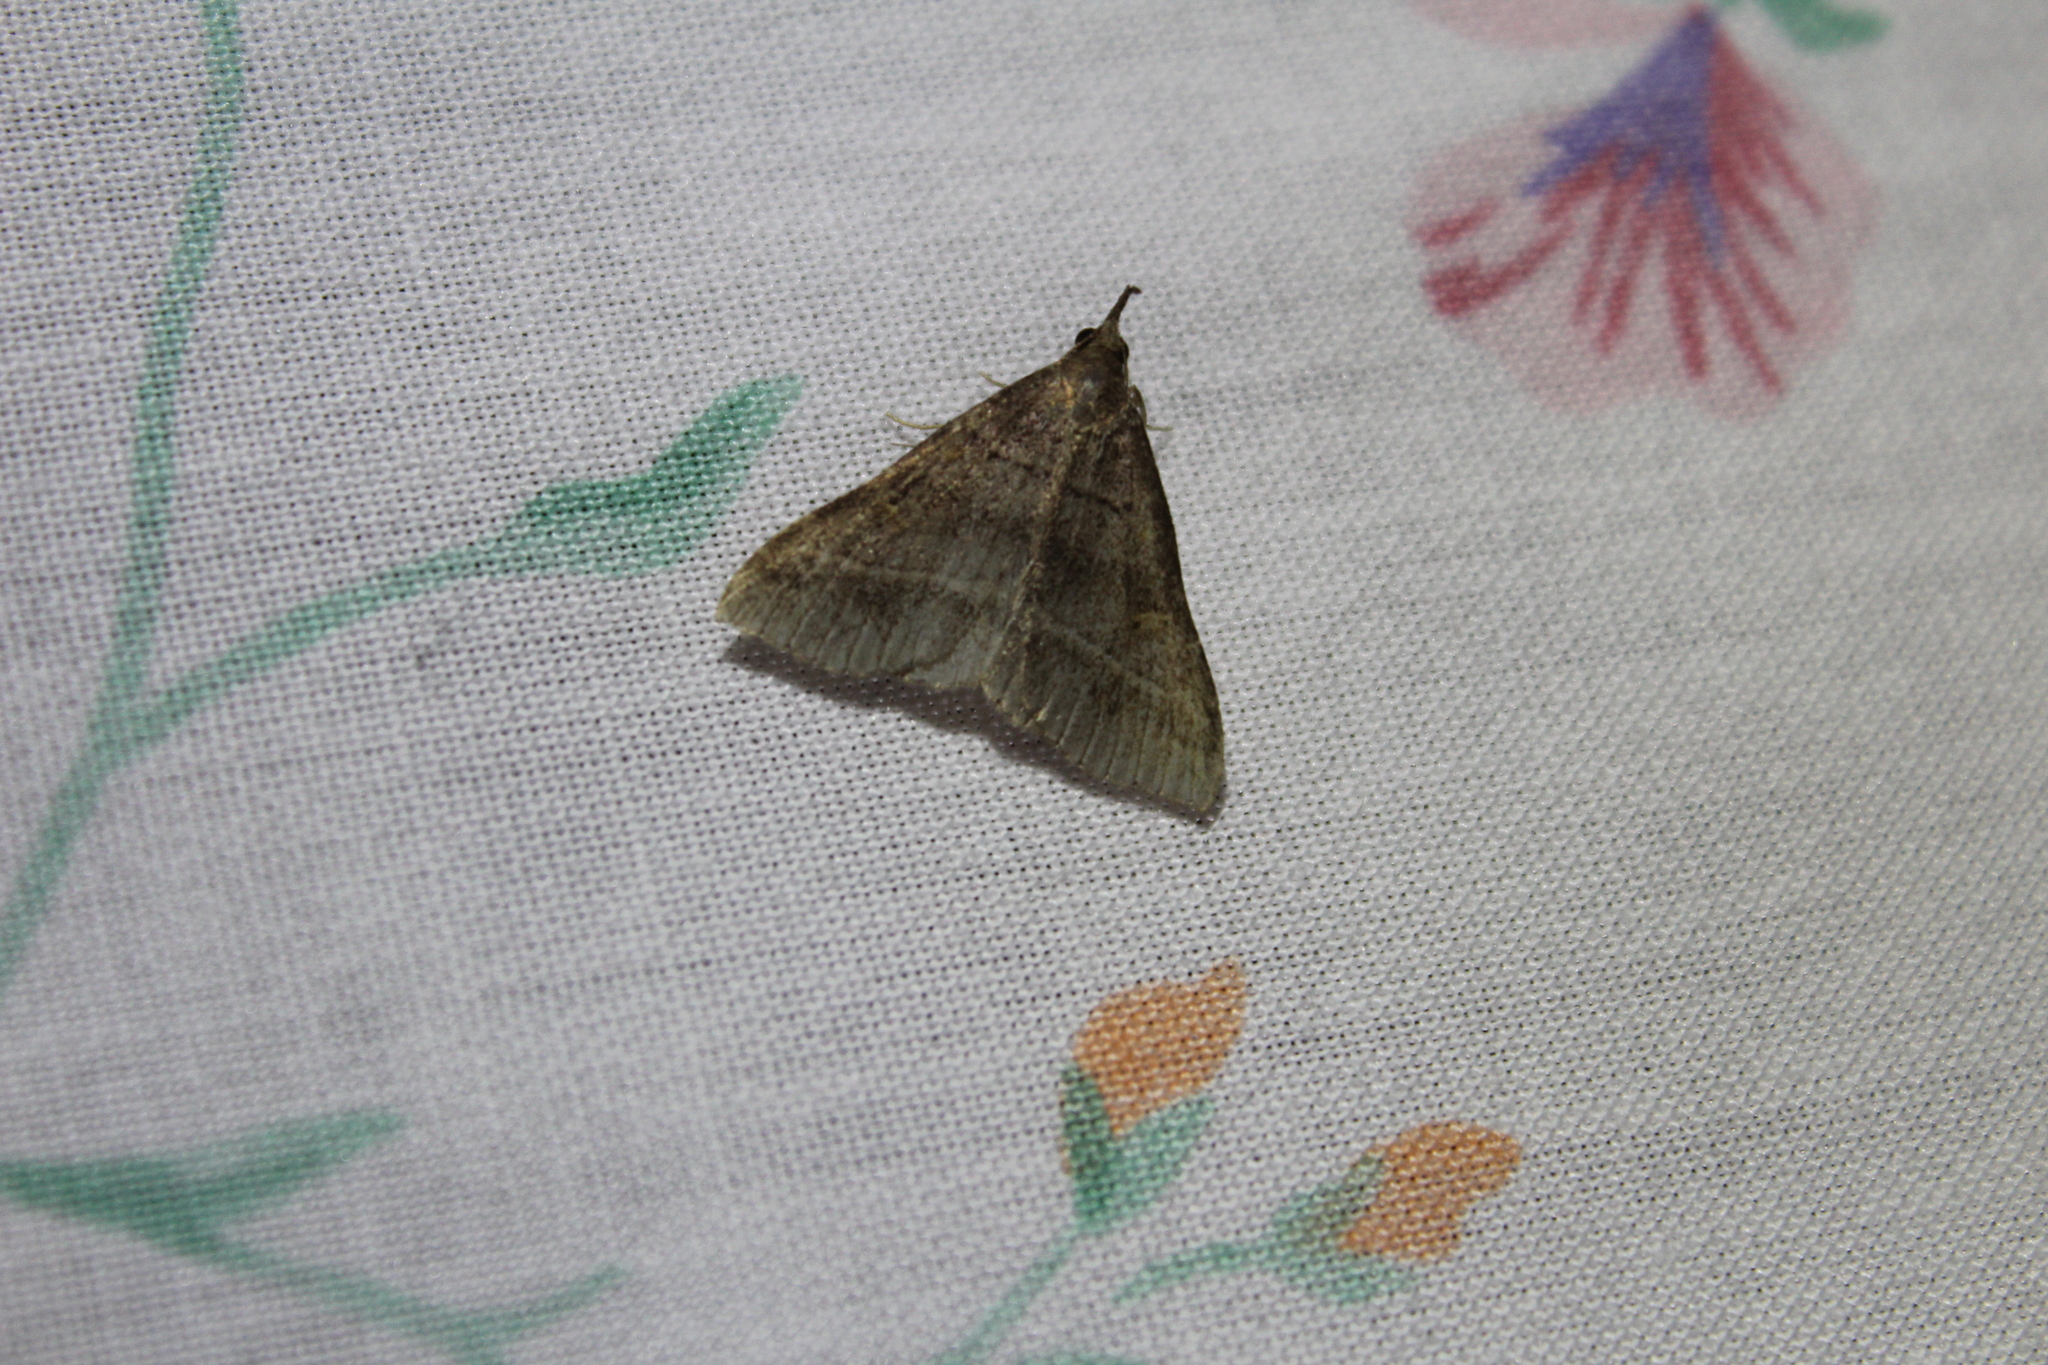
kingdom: Animalia
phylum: Arthropoda
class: Insecta
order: Lepidoptera
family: Erebidae
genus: Renia
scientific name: Renia flavipunctalis
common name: Yellow-spotted renia moth
